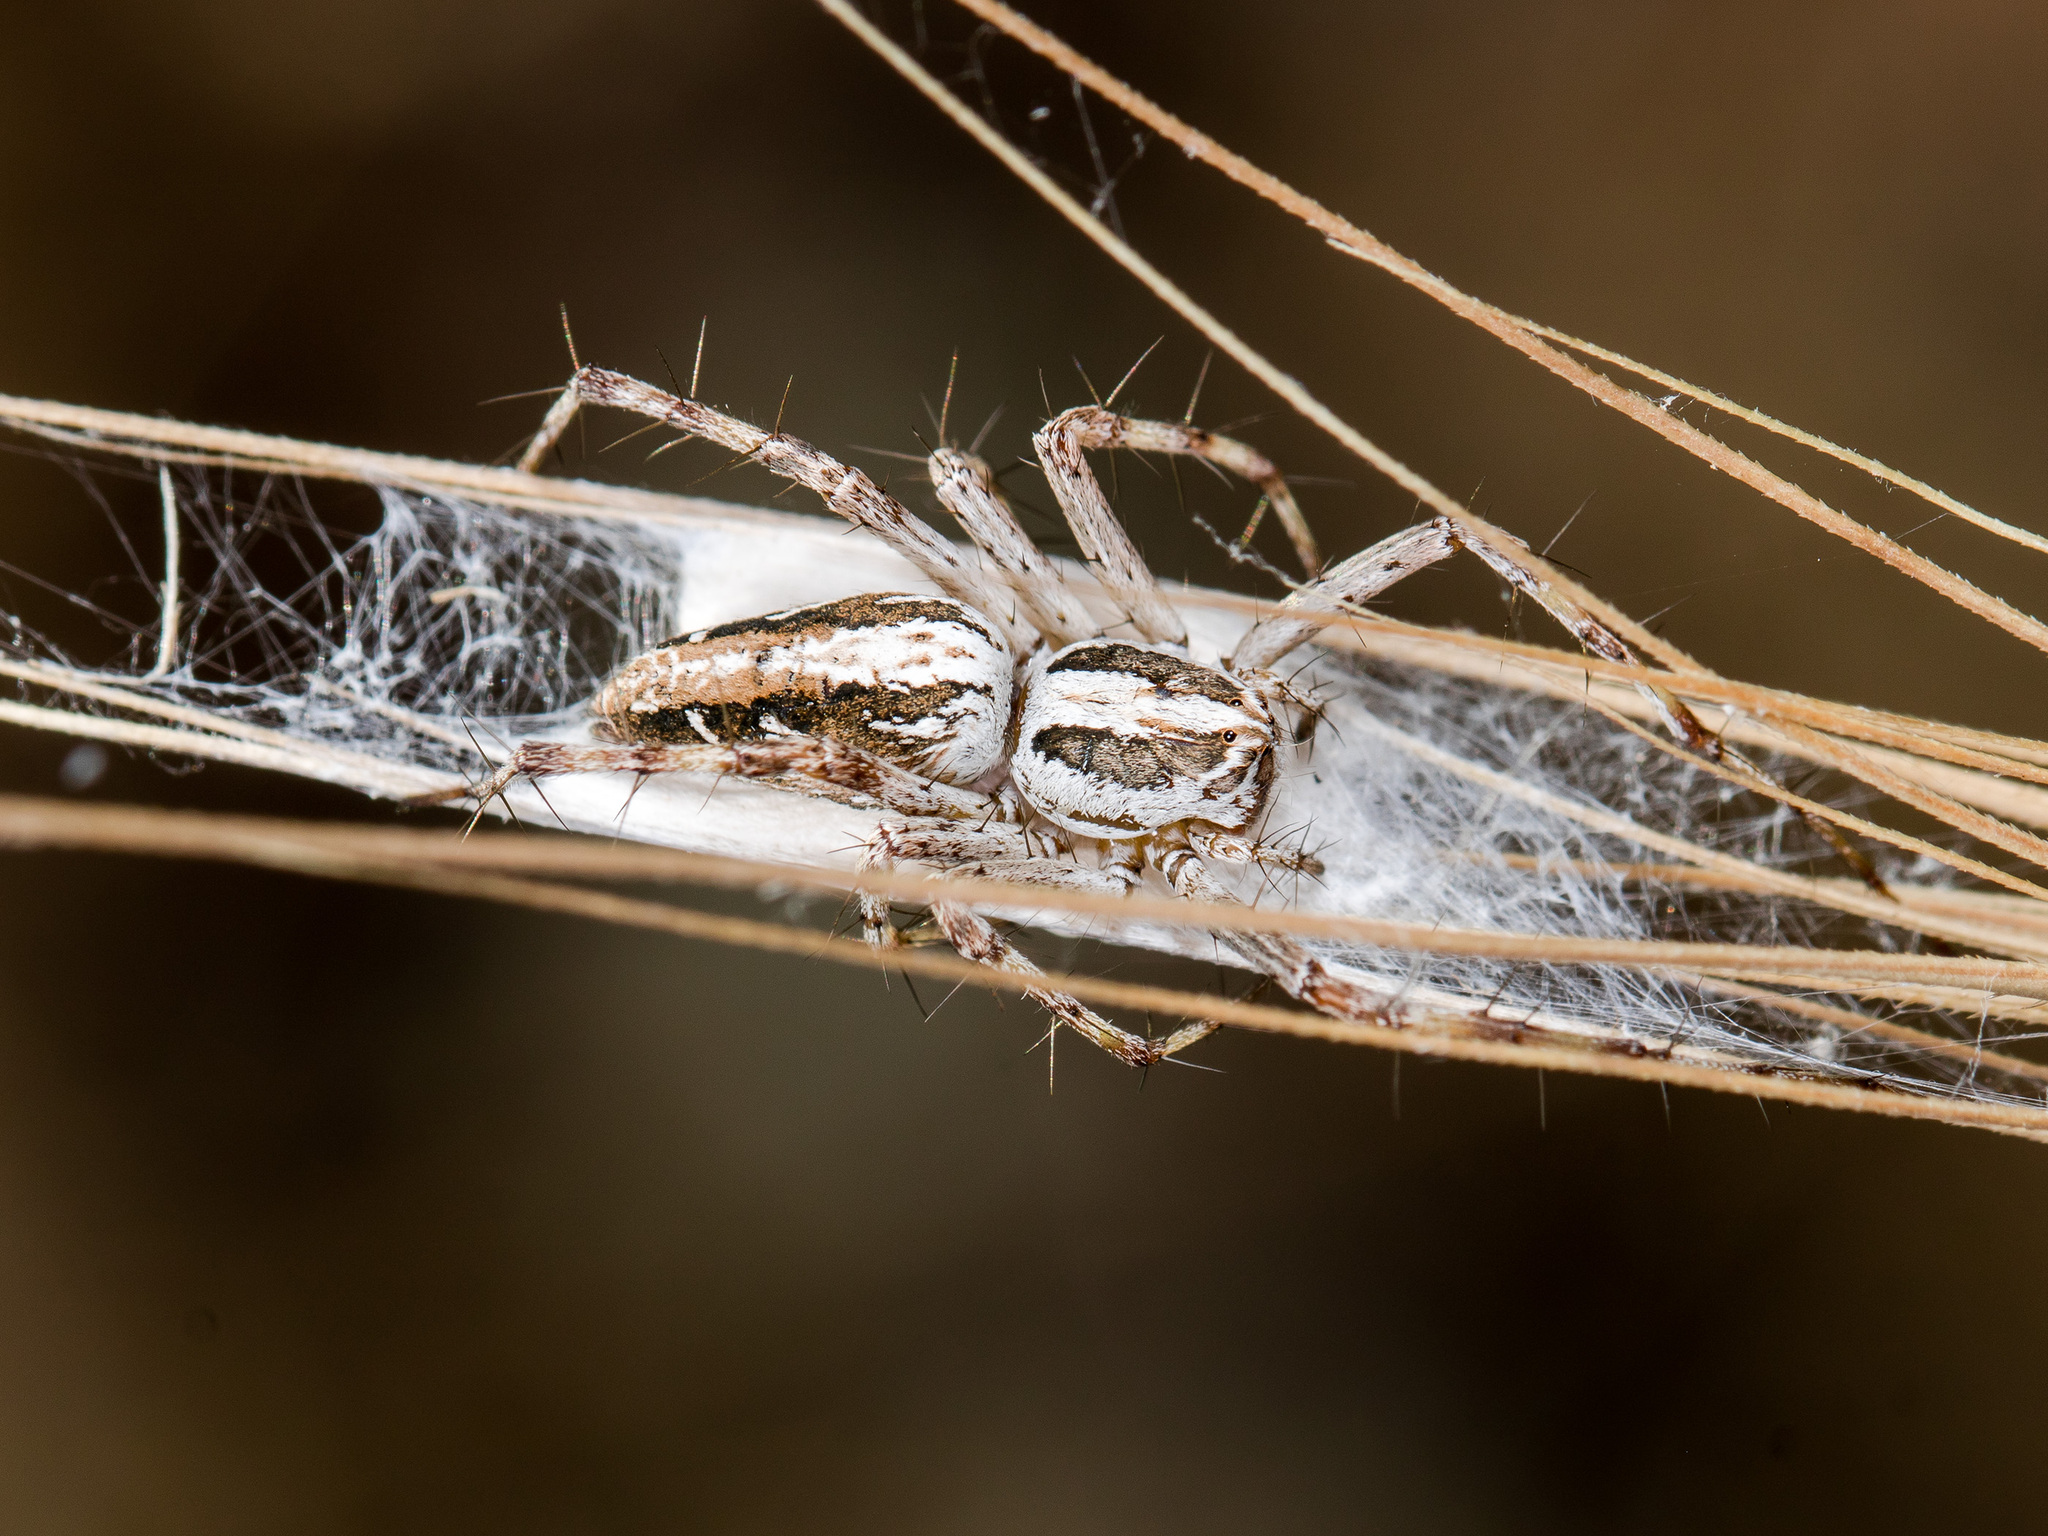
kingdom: Animalia
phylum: Arthropoda
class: Arachnida
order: Araneae
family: Oxyopidae
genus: Oxyopes
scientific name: Oxyopes globifer
